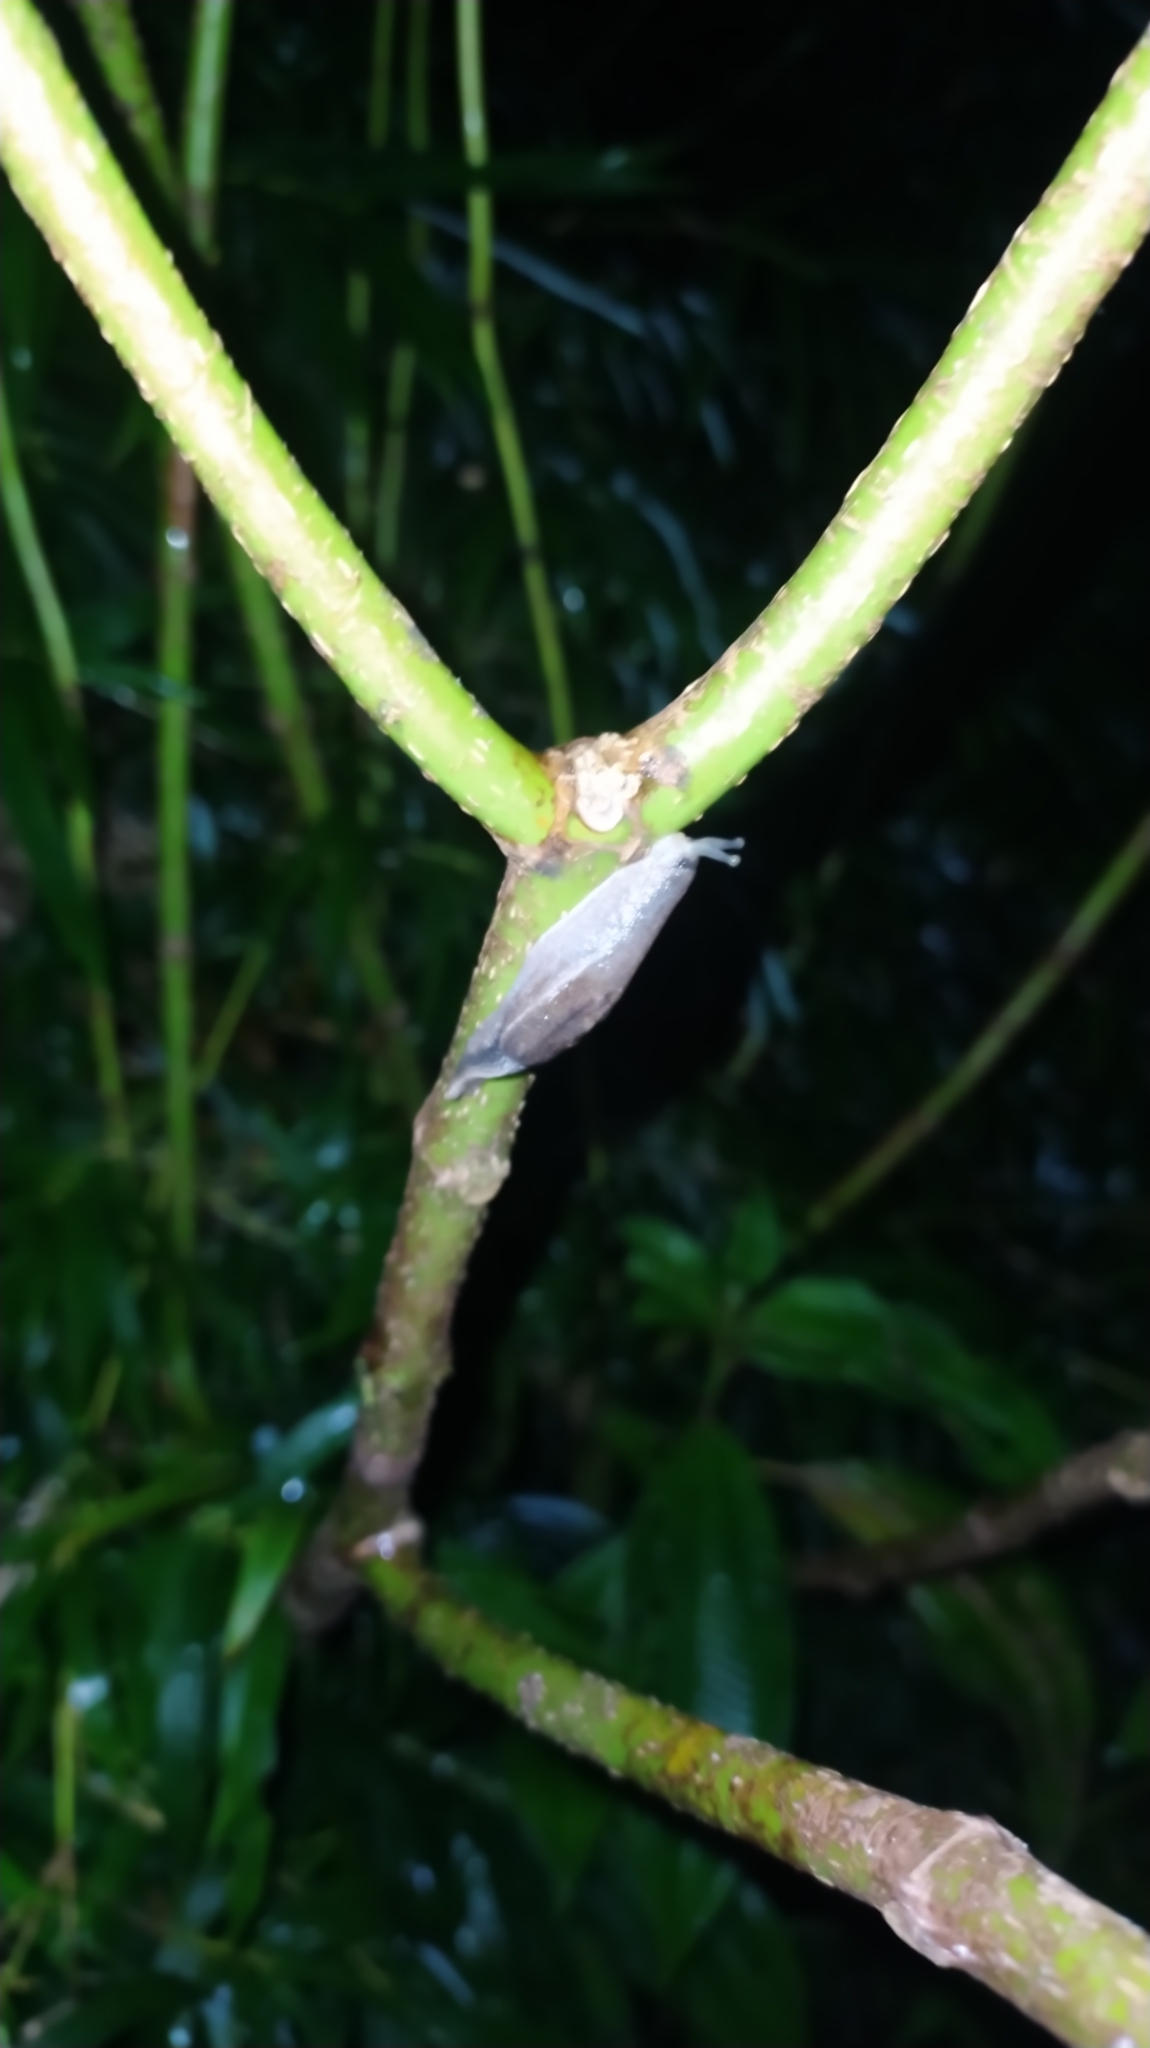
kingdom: Animalia
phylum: Mollusca
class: Gastropoda
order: Stylommatophora
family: Ariophantidae
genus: Parmarion
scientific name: Parmarion martensi
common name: Semi-slug
